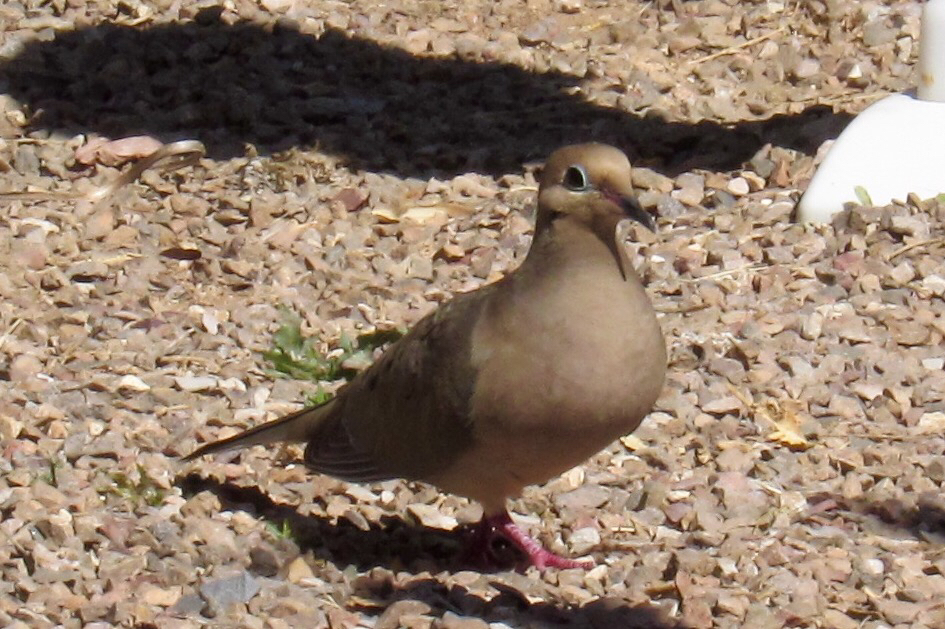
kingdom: Animalia
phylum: Chordata
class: Aves
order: Columbiformes
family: Columbidae
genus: Zenaida
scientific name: Zenaida macroura
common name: Mourning dove
